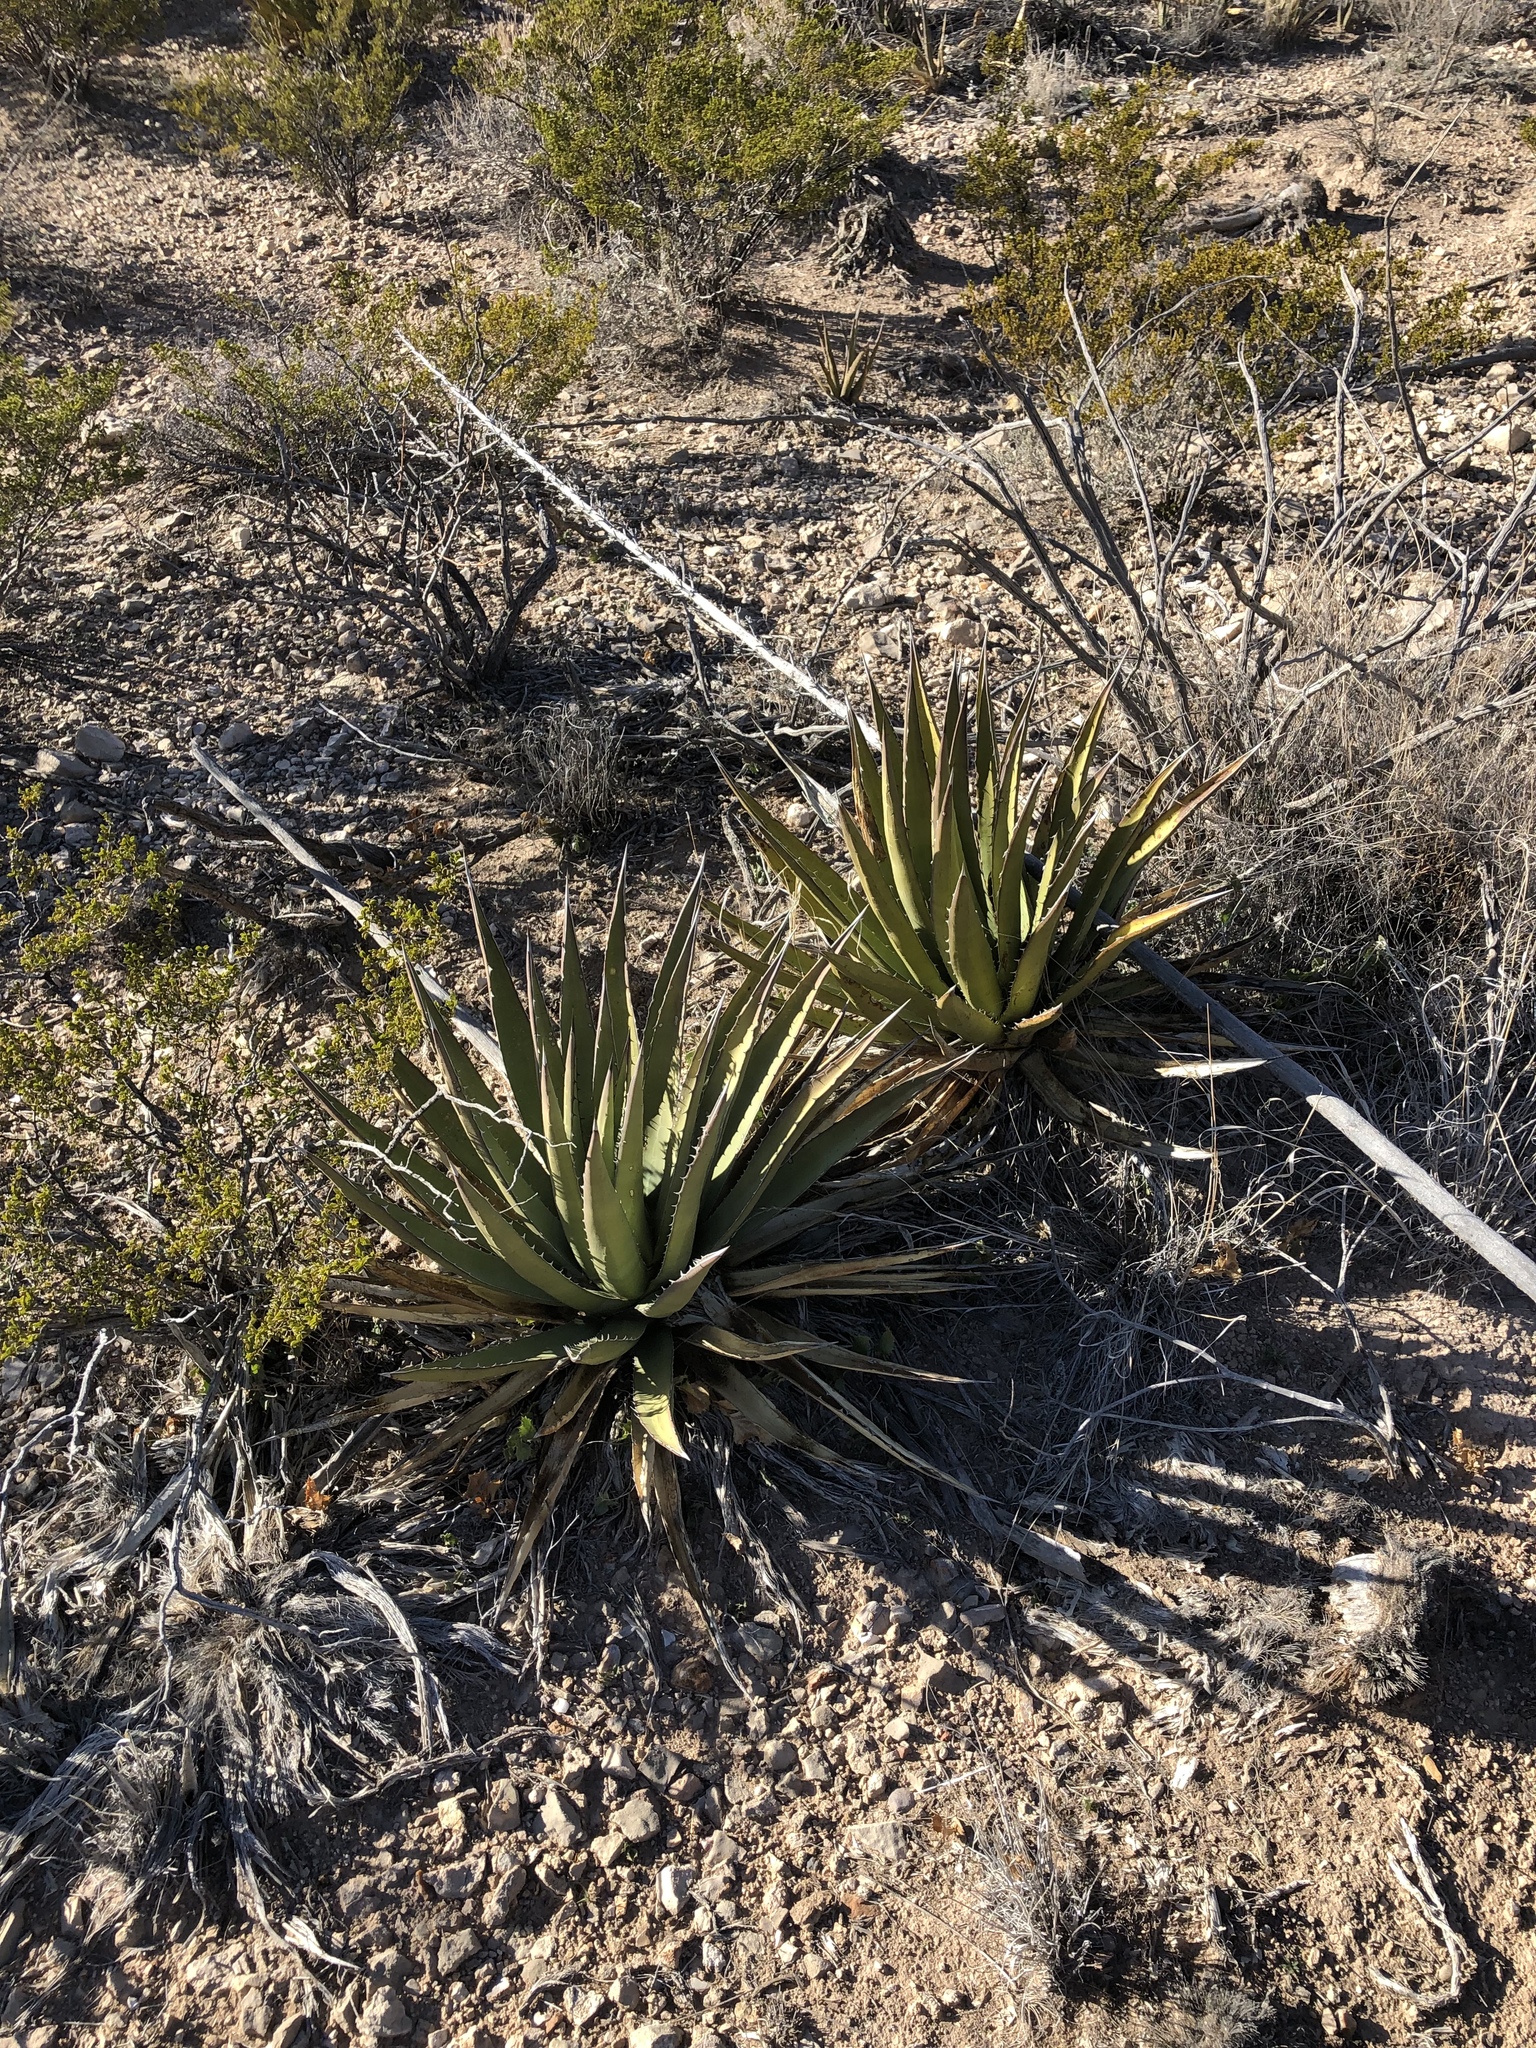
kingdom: Plantae
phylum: Tracheophyta
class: Liliopsida
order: Asparagales
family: Asparagaceae
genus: Agave
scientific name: Agave lechuguilla
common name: Lecheguilla agave
